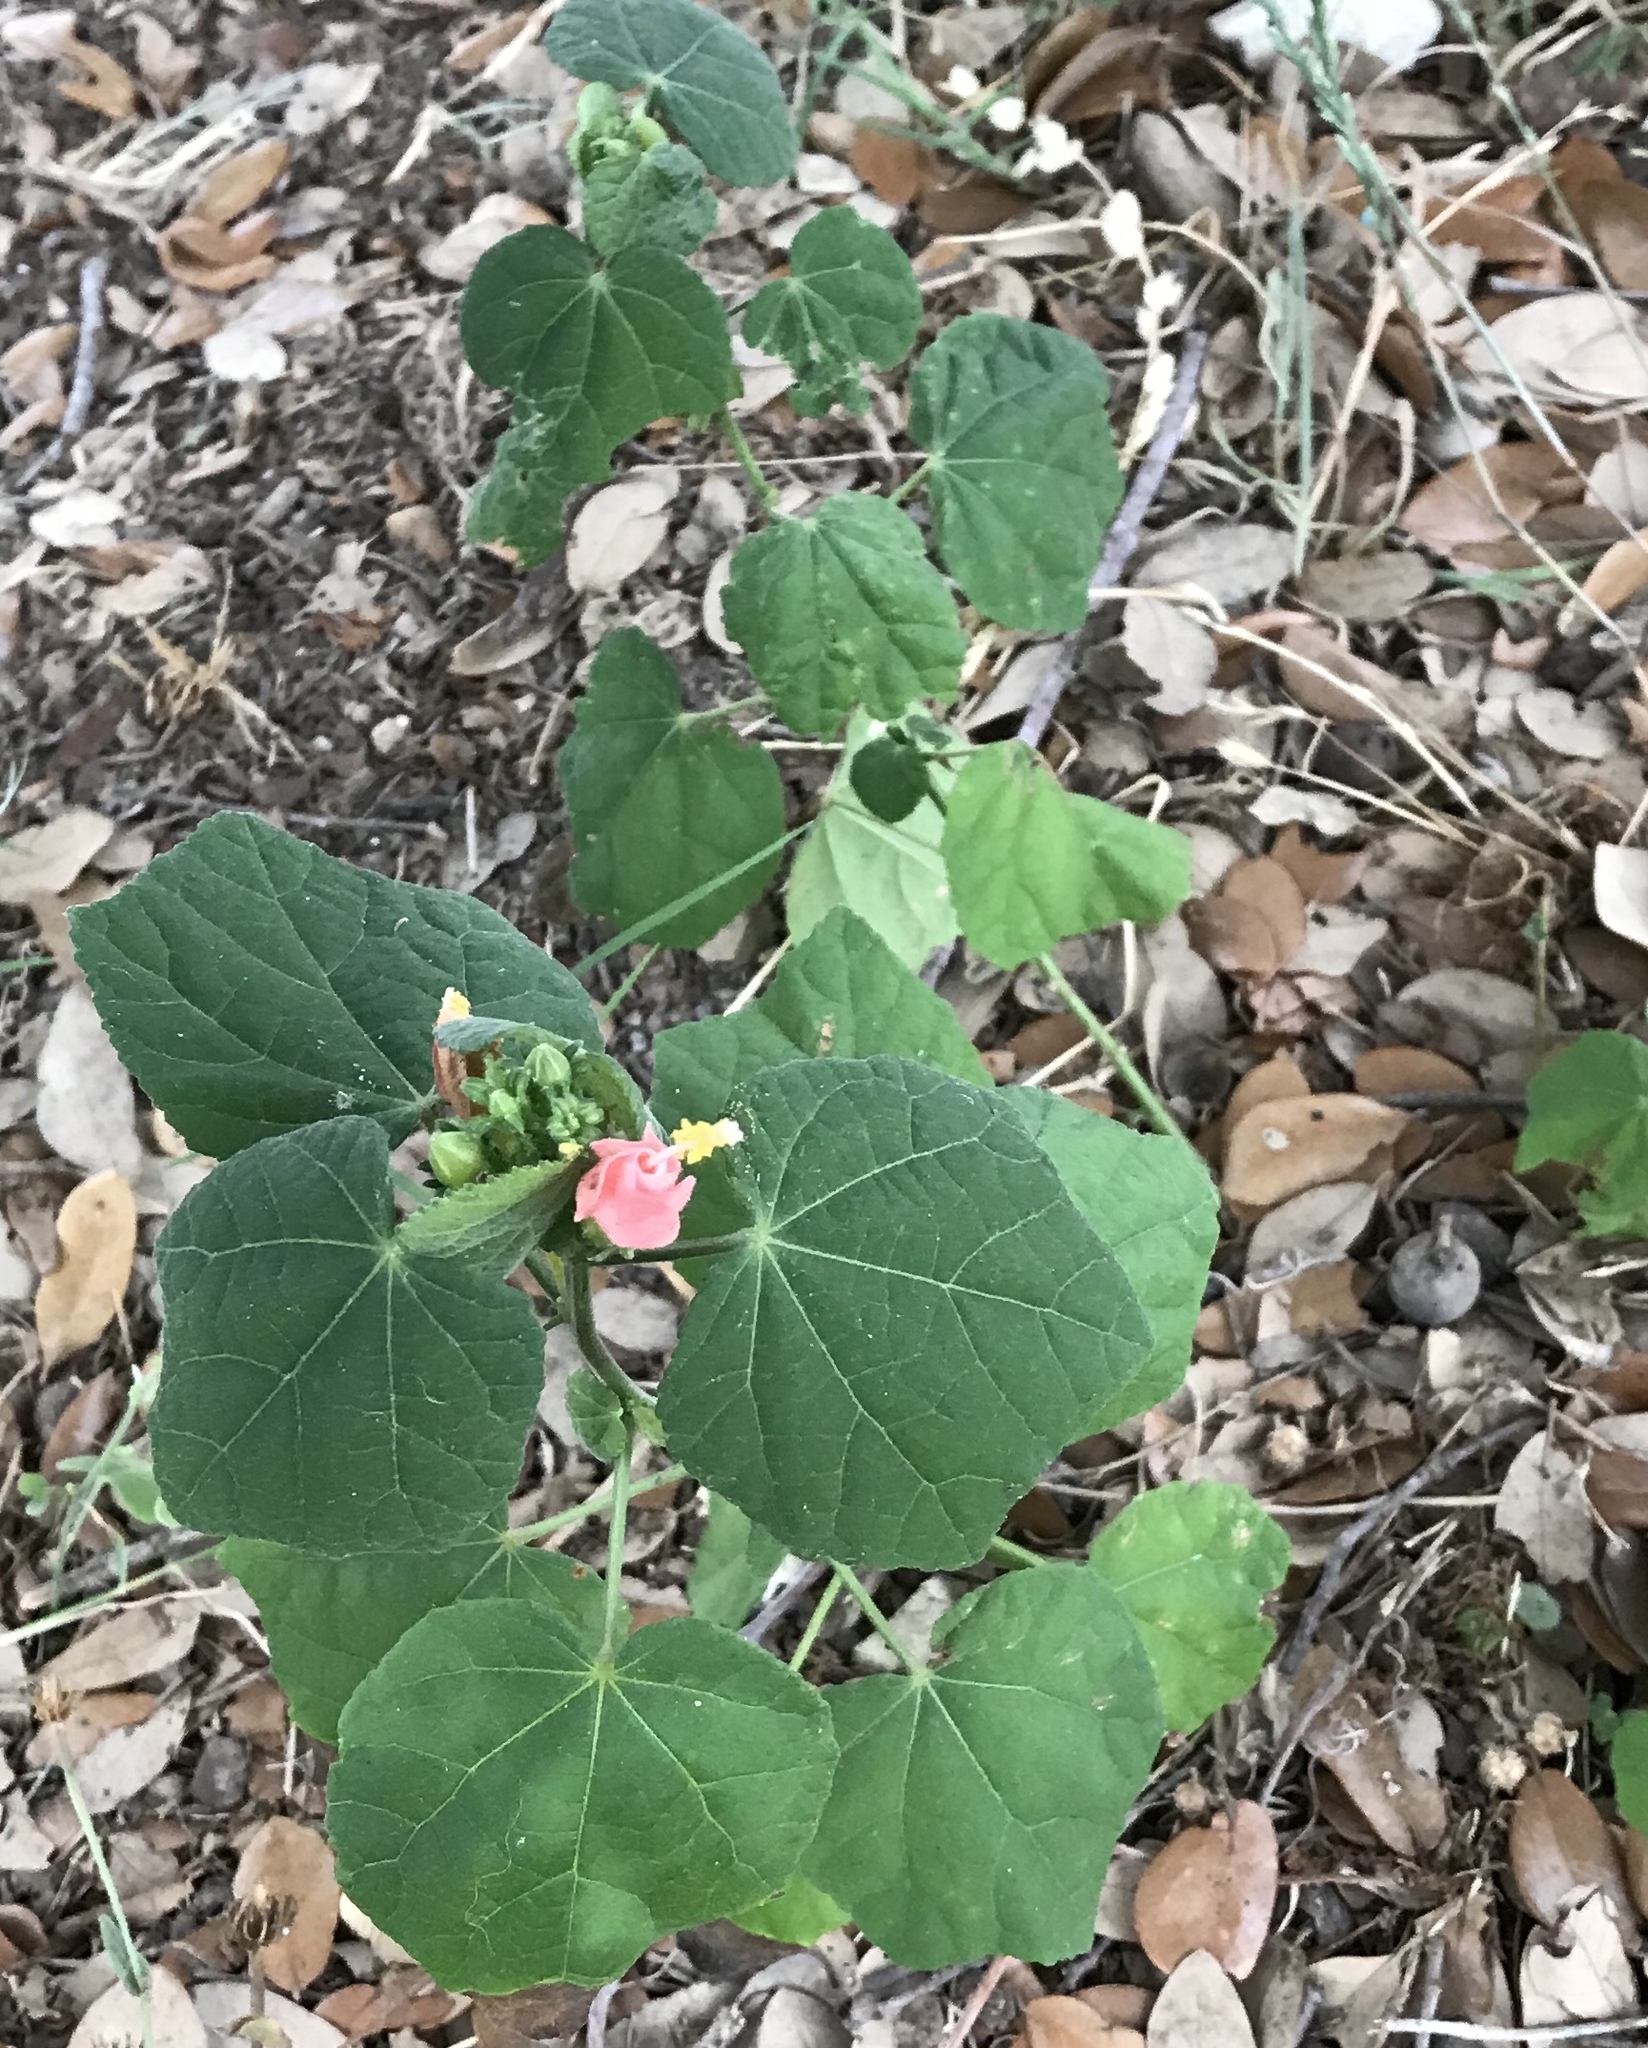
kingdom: Plantae
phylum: Tracheophyta
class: Magnoliopsida
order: Malvales
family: Malvaceae
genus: Malvaviscus
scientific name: Malvaviscus arboreus
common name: Wax mallow
